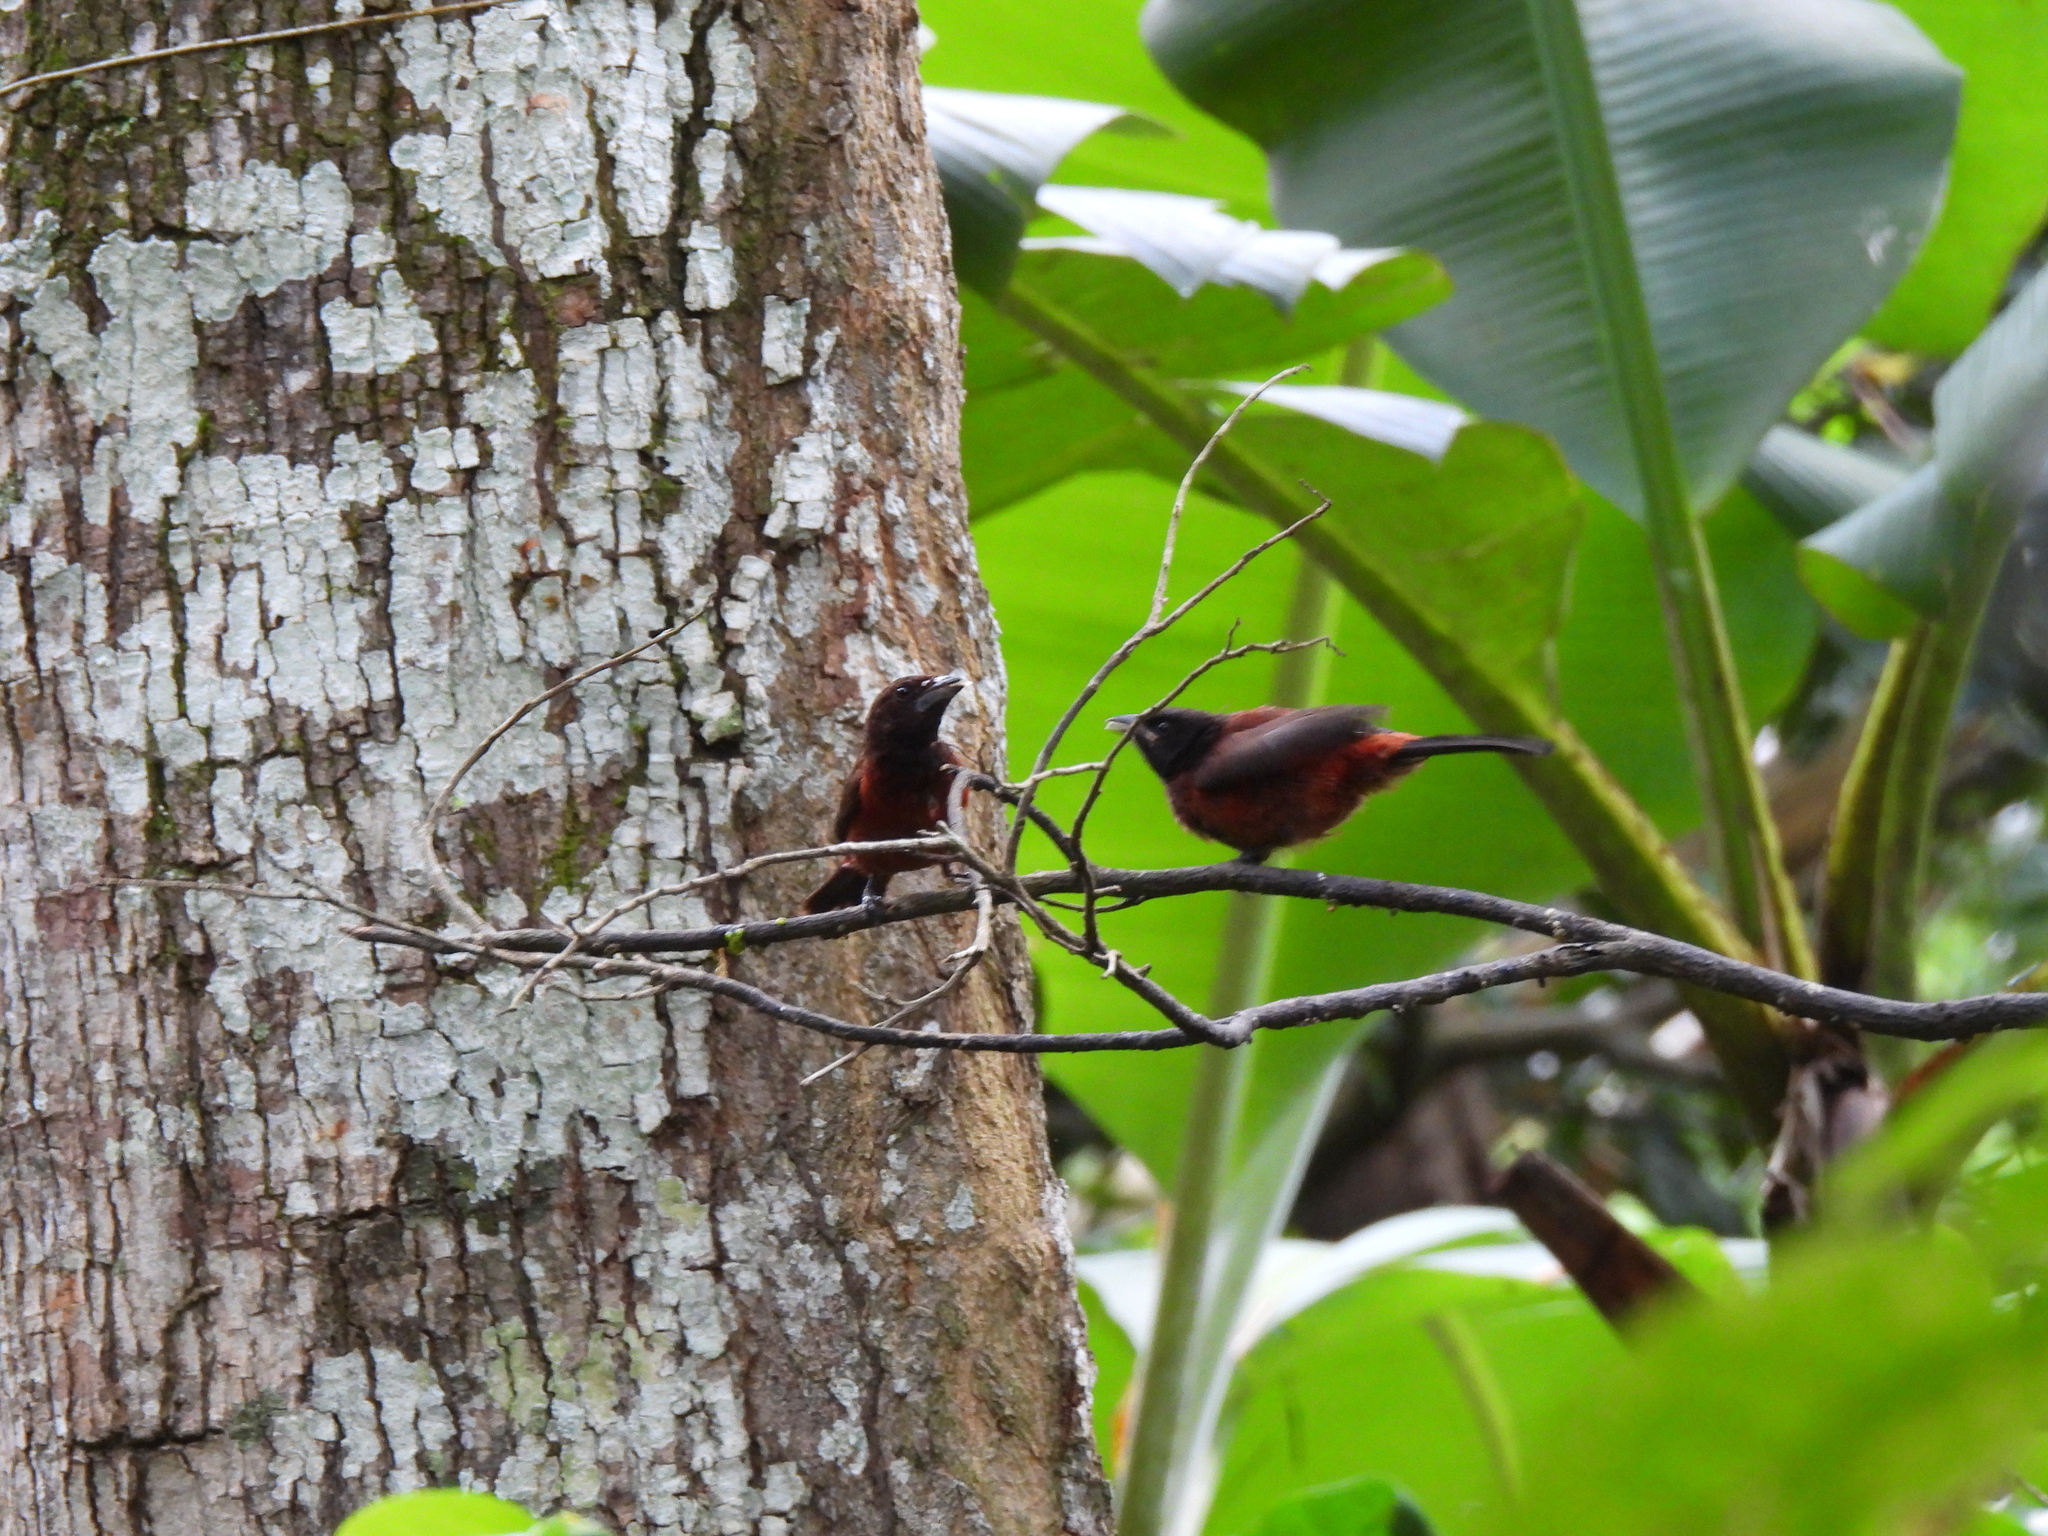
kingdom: Animalia
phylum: Chordata
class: Aves
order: Passeriformes
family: Thraupidae
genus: Ramphocelus
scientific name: Ramphocelus dimidiatus
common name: Crimson-backed tanager
